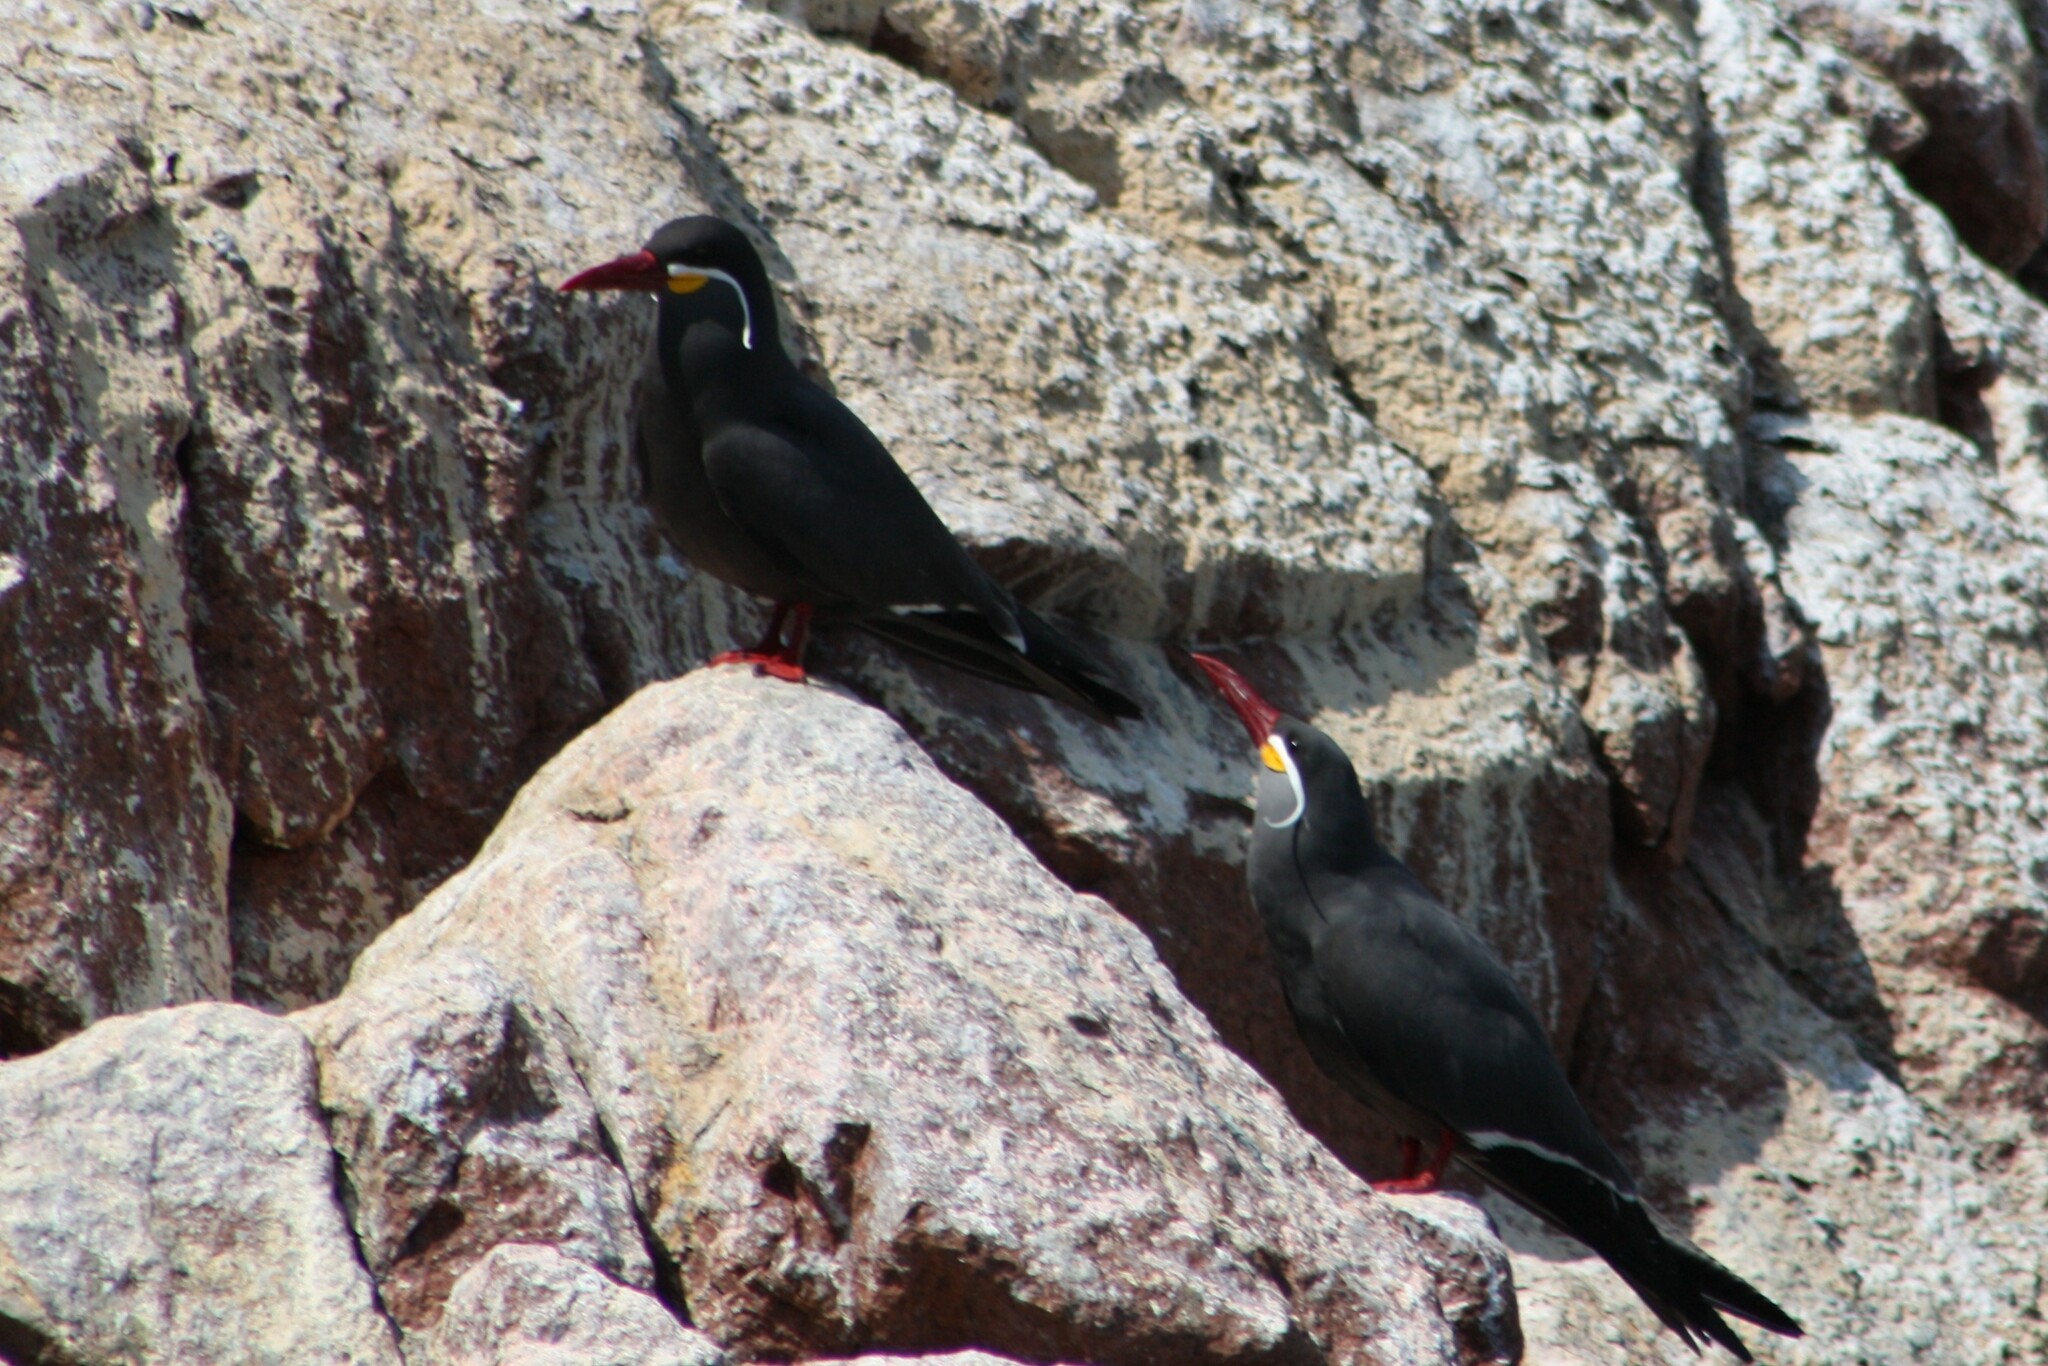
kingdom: Animalia
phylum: Chordata
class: Aves
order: Charadriiformes
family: Laridae
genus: Larosterna
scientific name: Larosterna inca
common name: Inca tern
